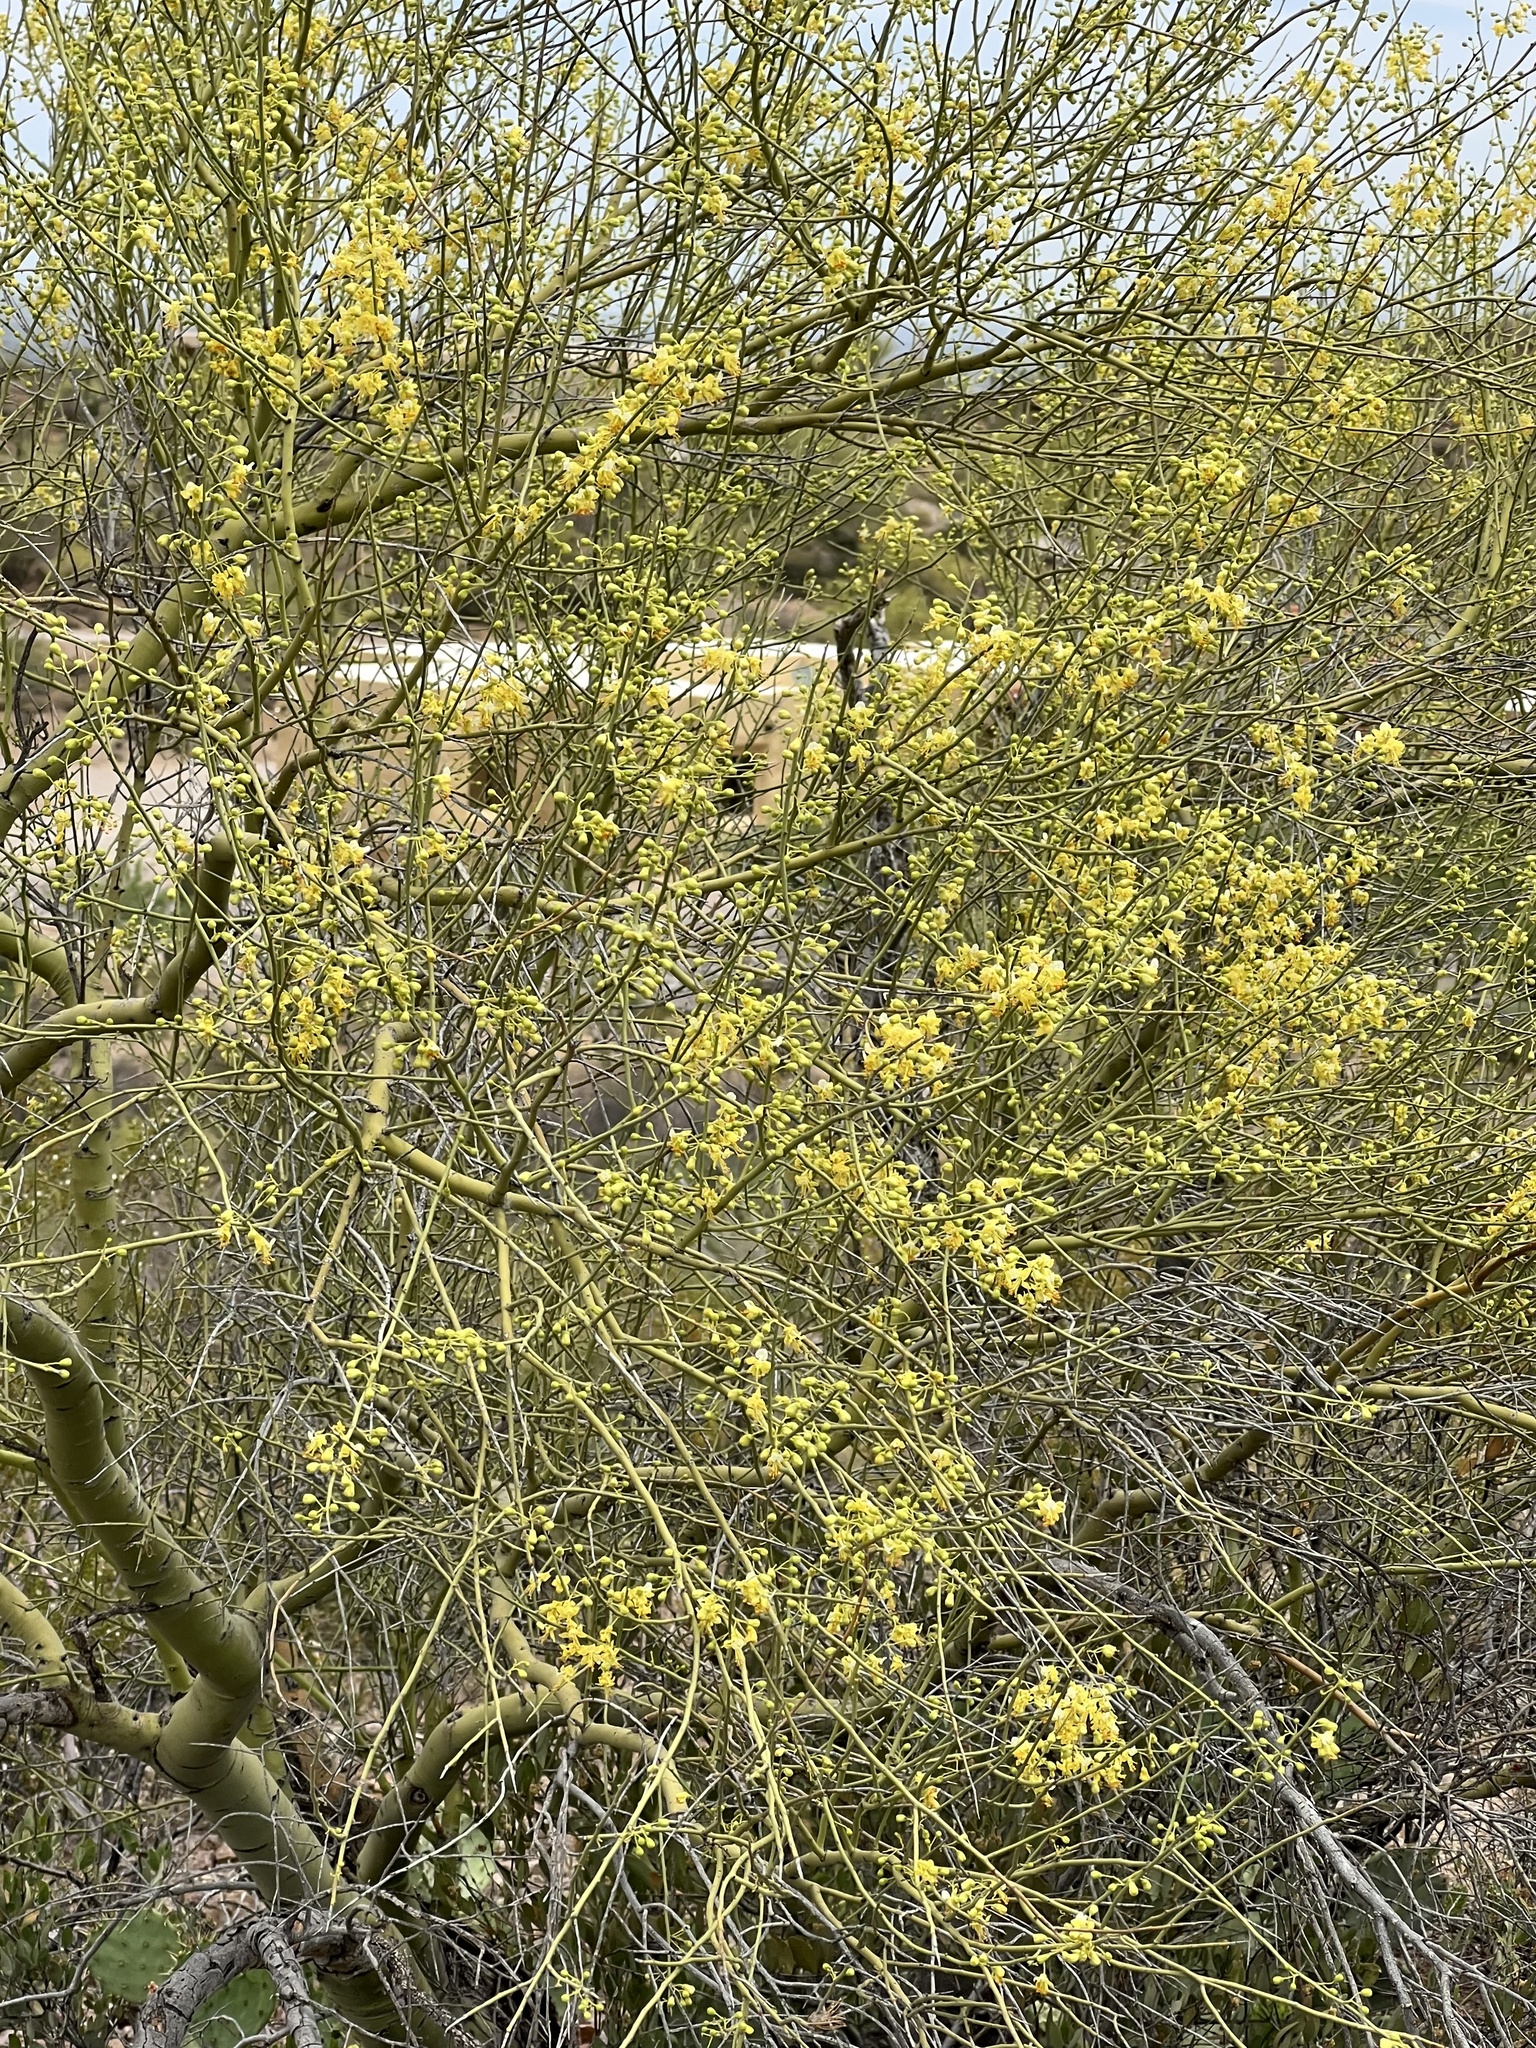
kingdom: Plantae
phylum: Tracheophyta
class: Magnoliopsida
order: Fabales
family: Fabaceae
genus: Parkinsonia
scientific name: Parkinsonia microphylla
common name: Yellow paloverde
